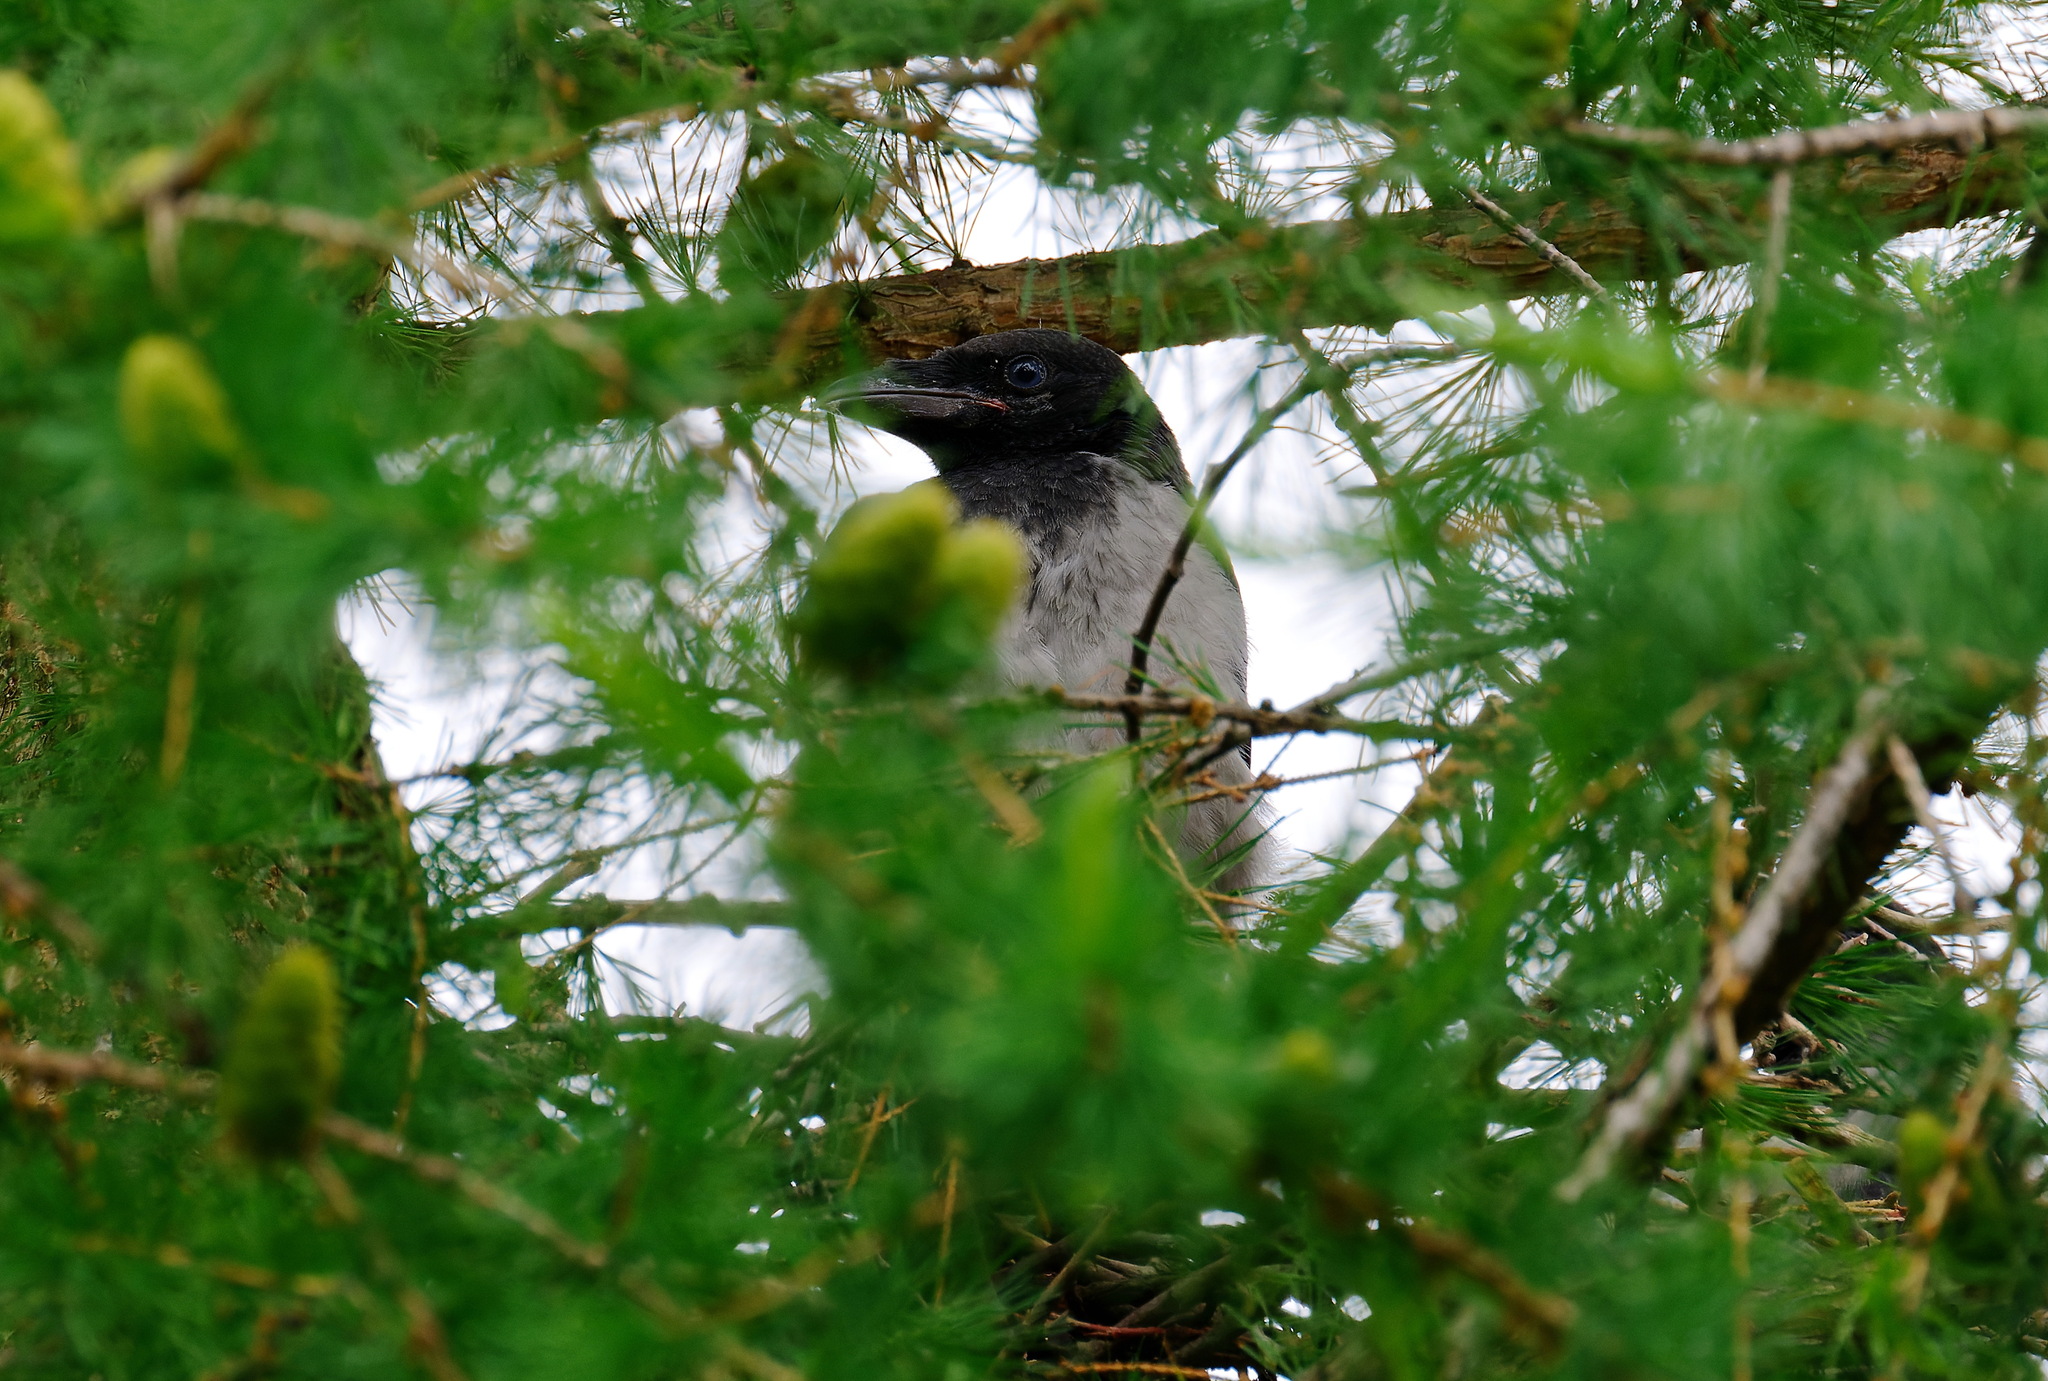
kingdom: Animalia
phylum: Chordata
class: Aves
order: Passeriformes
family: Corvidae
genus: Corvus
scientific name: Corvus cornix
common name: Hooded crow
